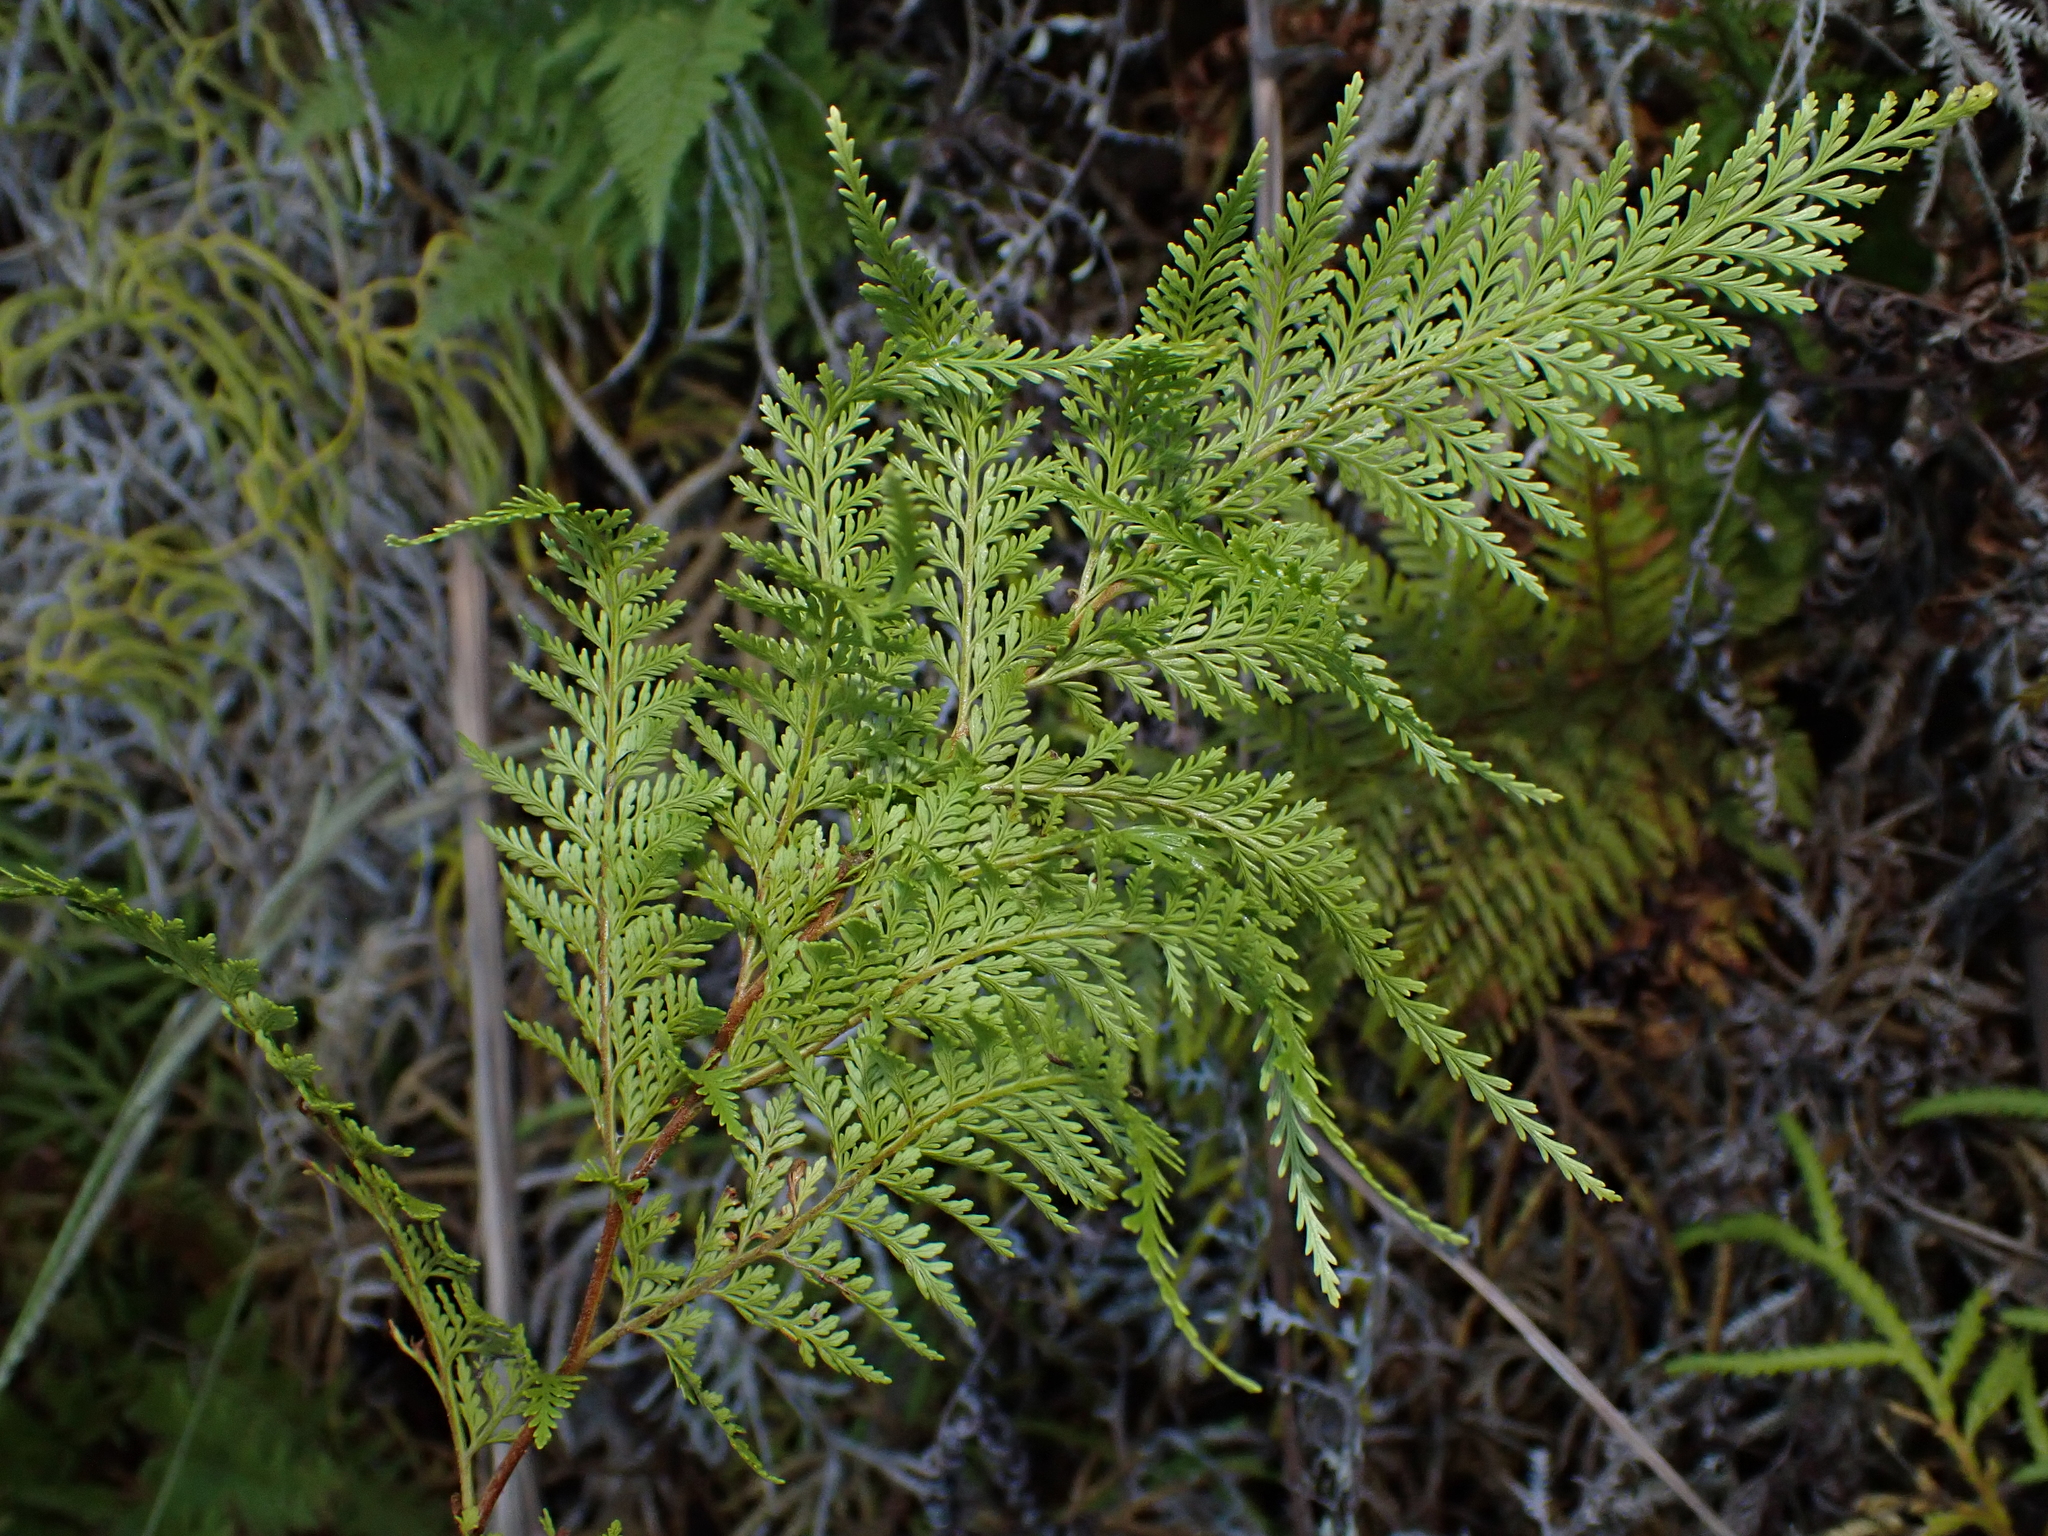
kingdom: Plantae
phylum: Tracheophyta
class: Polypodiopsida
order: Polypodiales
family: Dennstaedtiaceae
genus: Paesia
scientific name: Paesia scaberula
